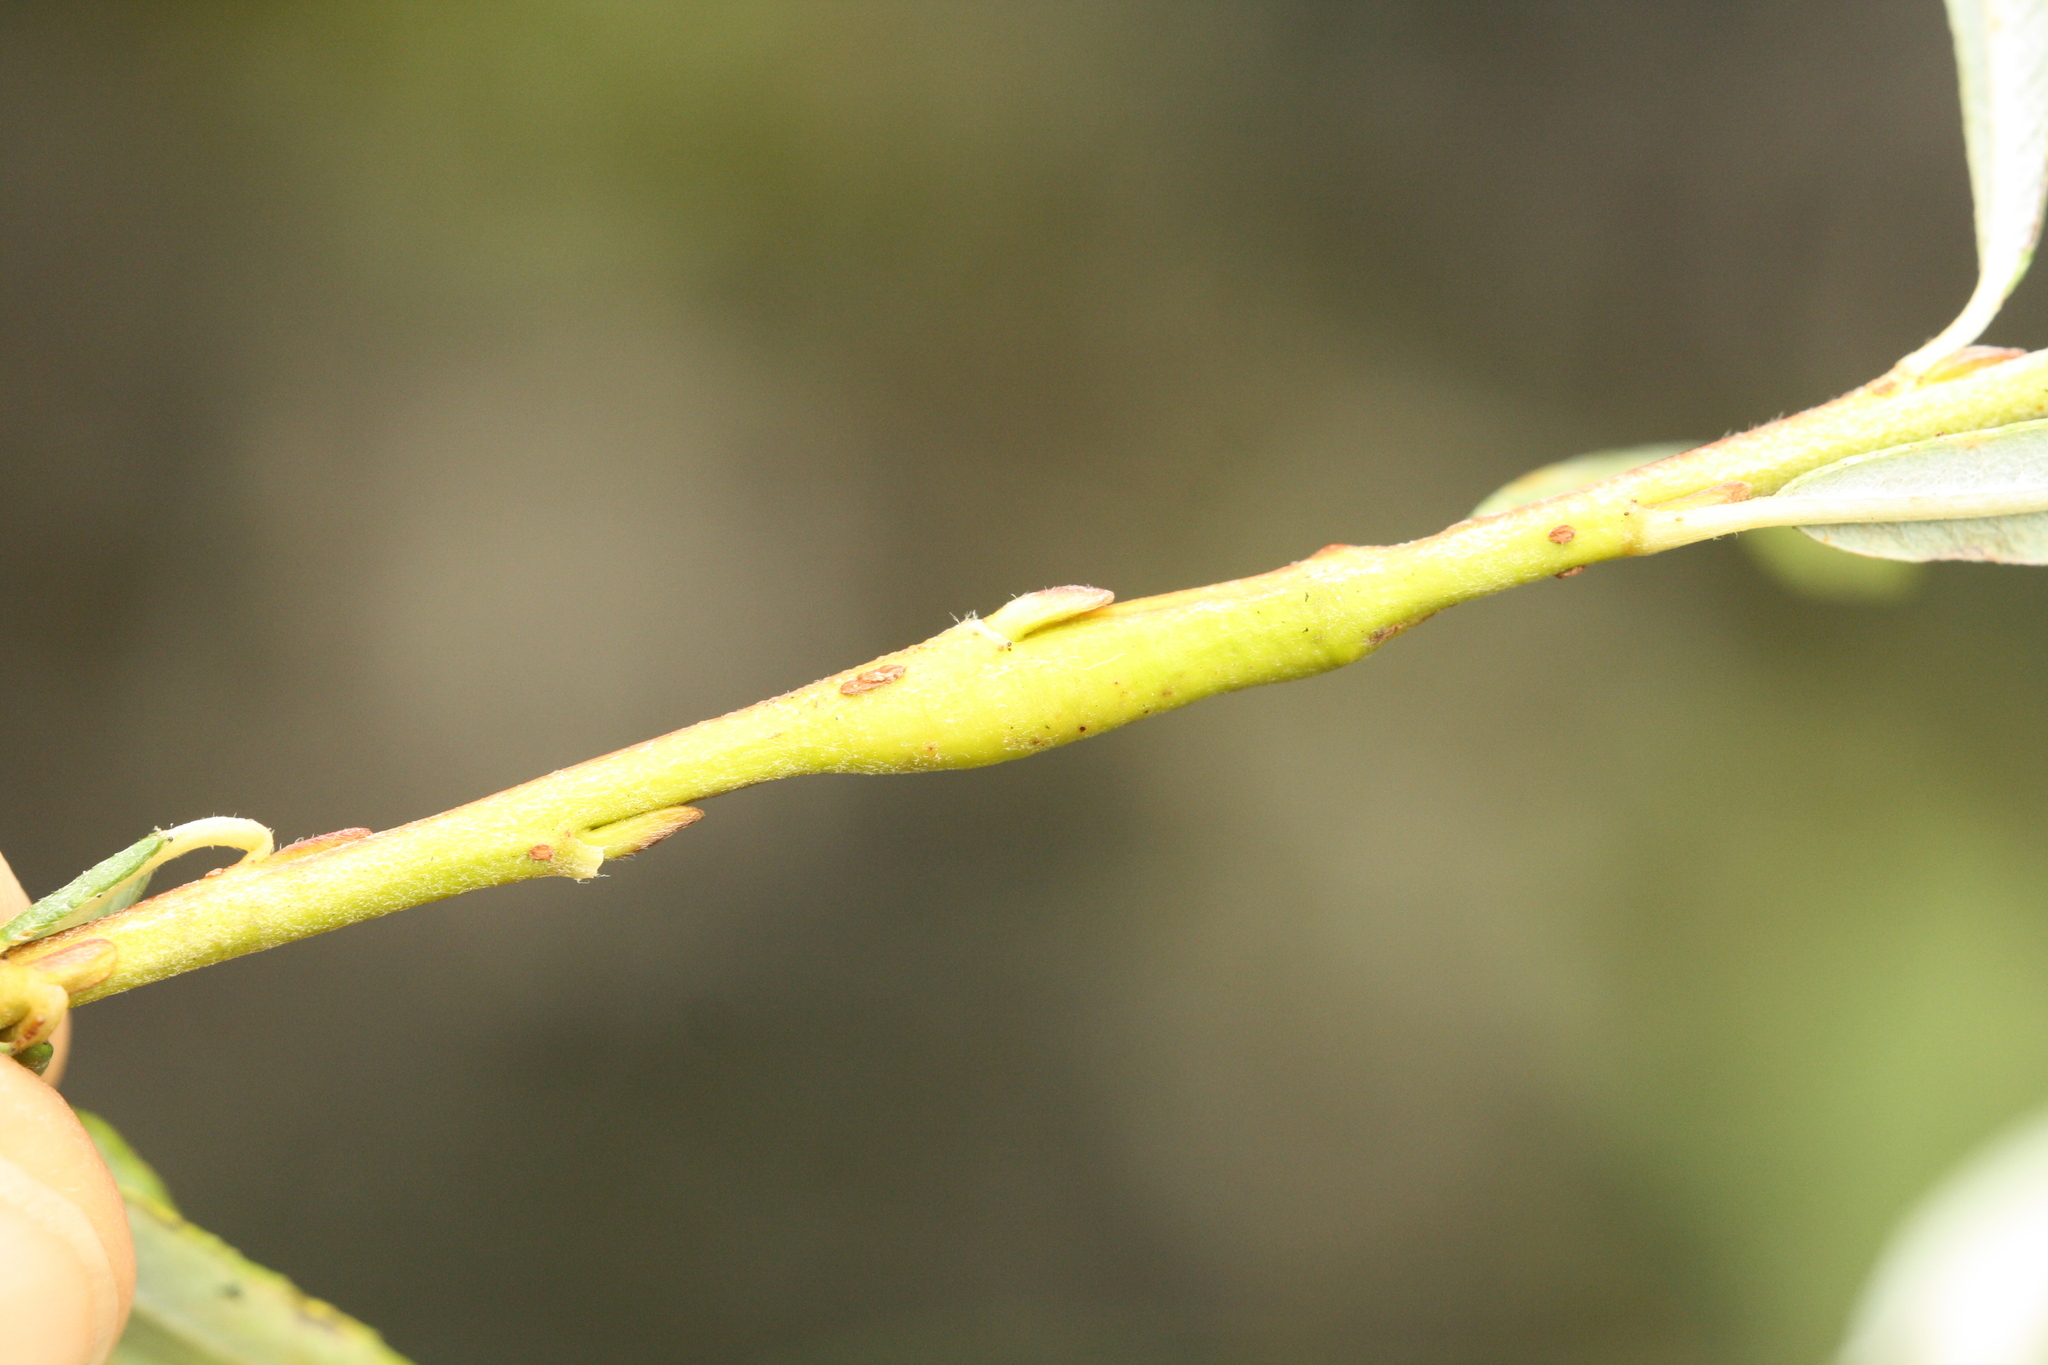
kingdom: Animalia
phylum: Arthropoda
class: Insecta
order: Hymenoptera
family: Tenthredinidae
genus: Euura
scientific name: Euura elaeagnos
